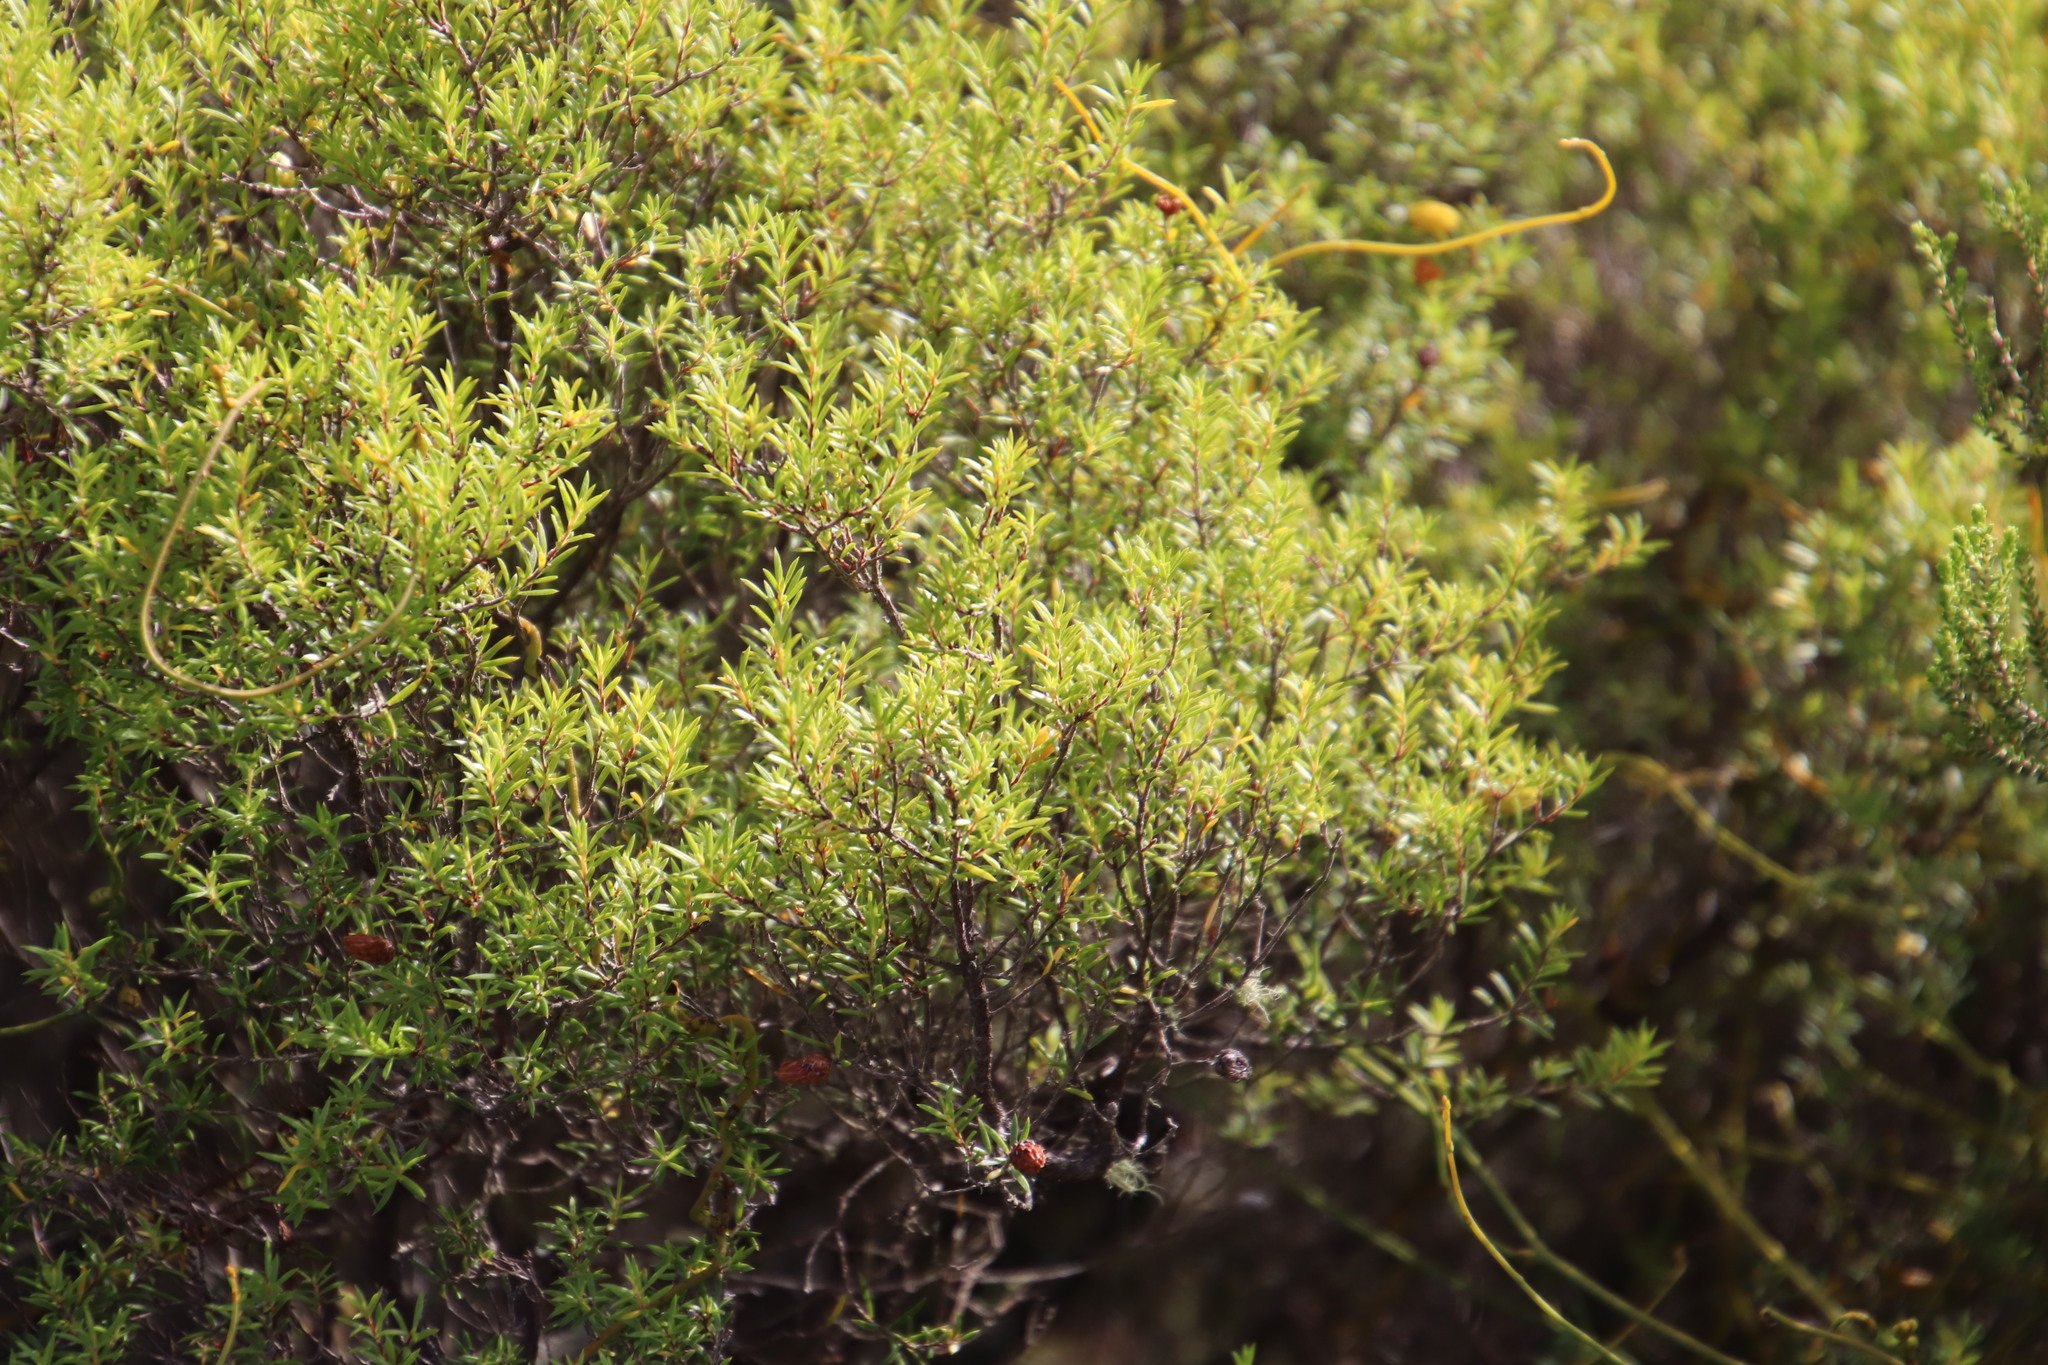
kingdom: Plantae
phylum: Tracheophyta
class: Magnoliopsida
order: Sapindales
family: Rutaceae
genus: Coleonema
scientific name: Coleonema album
